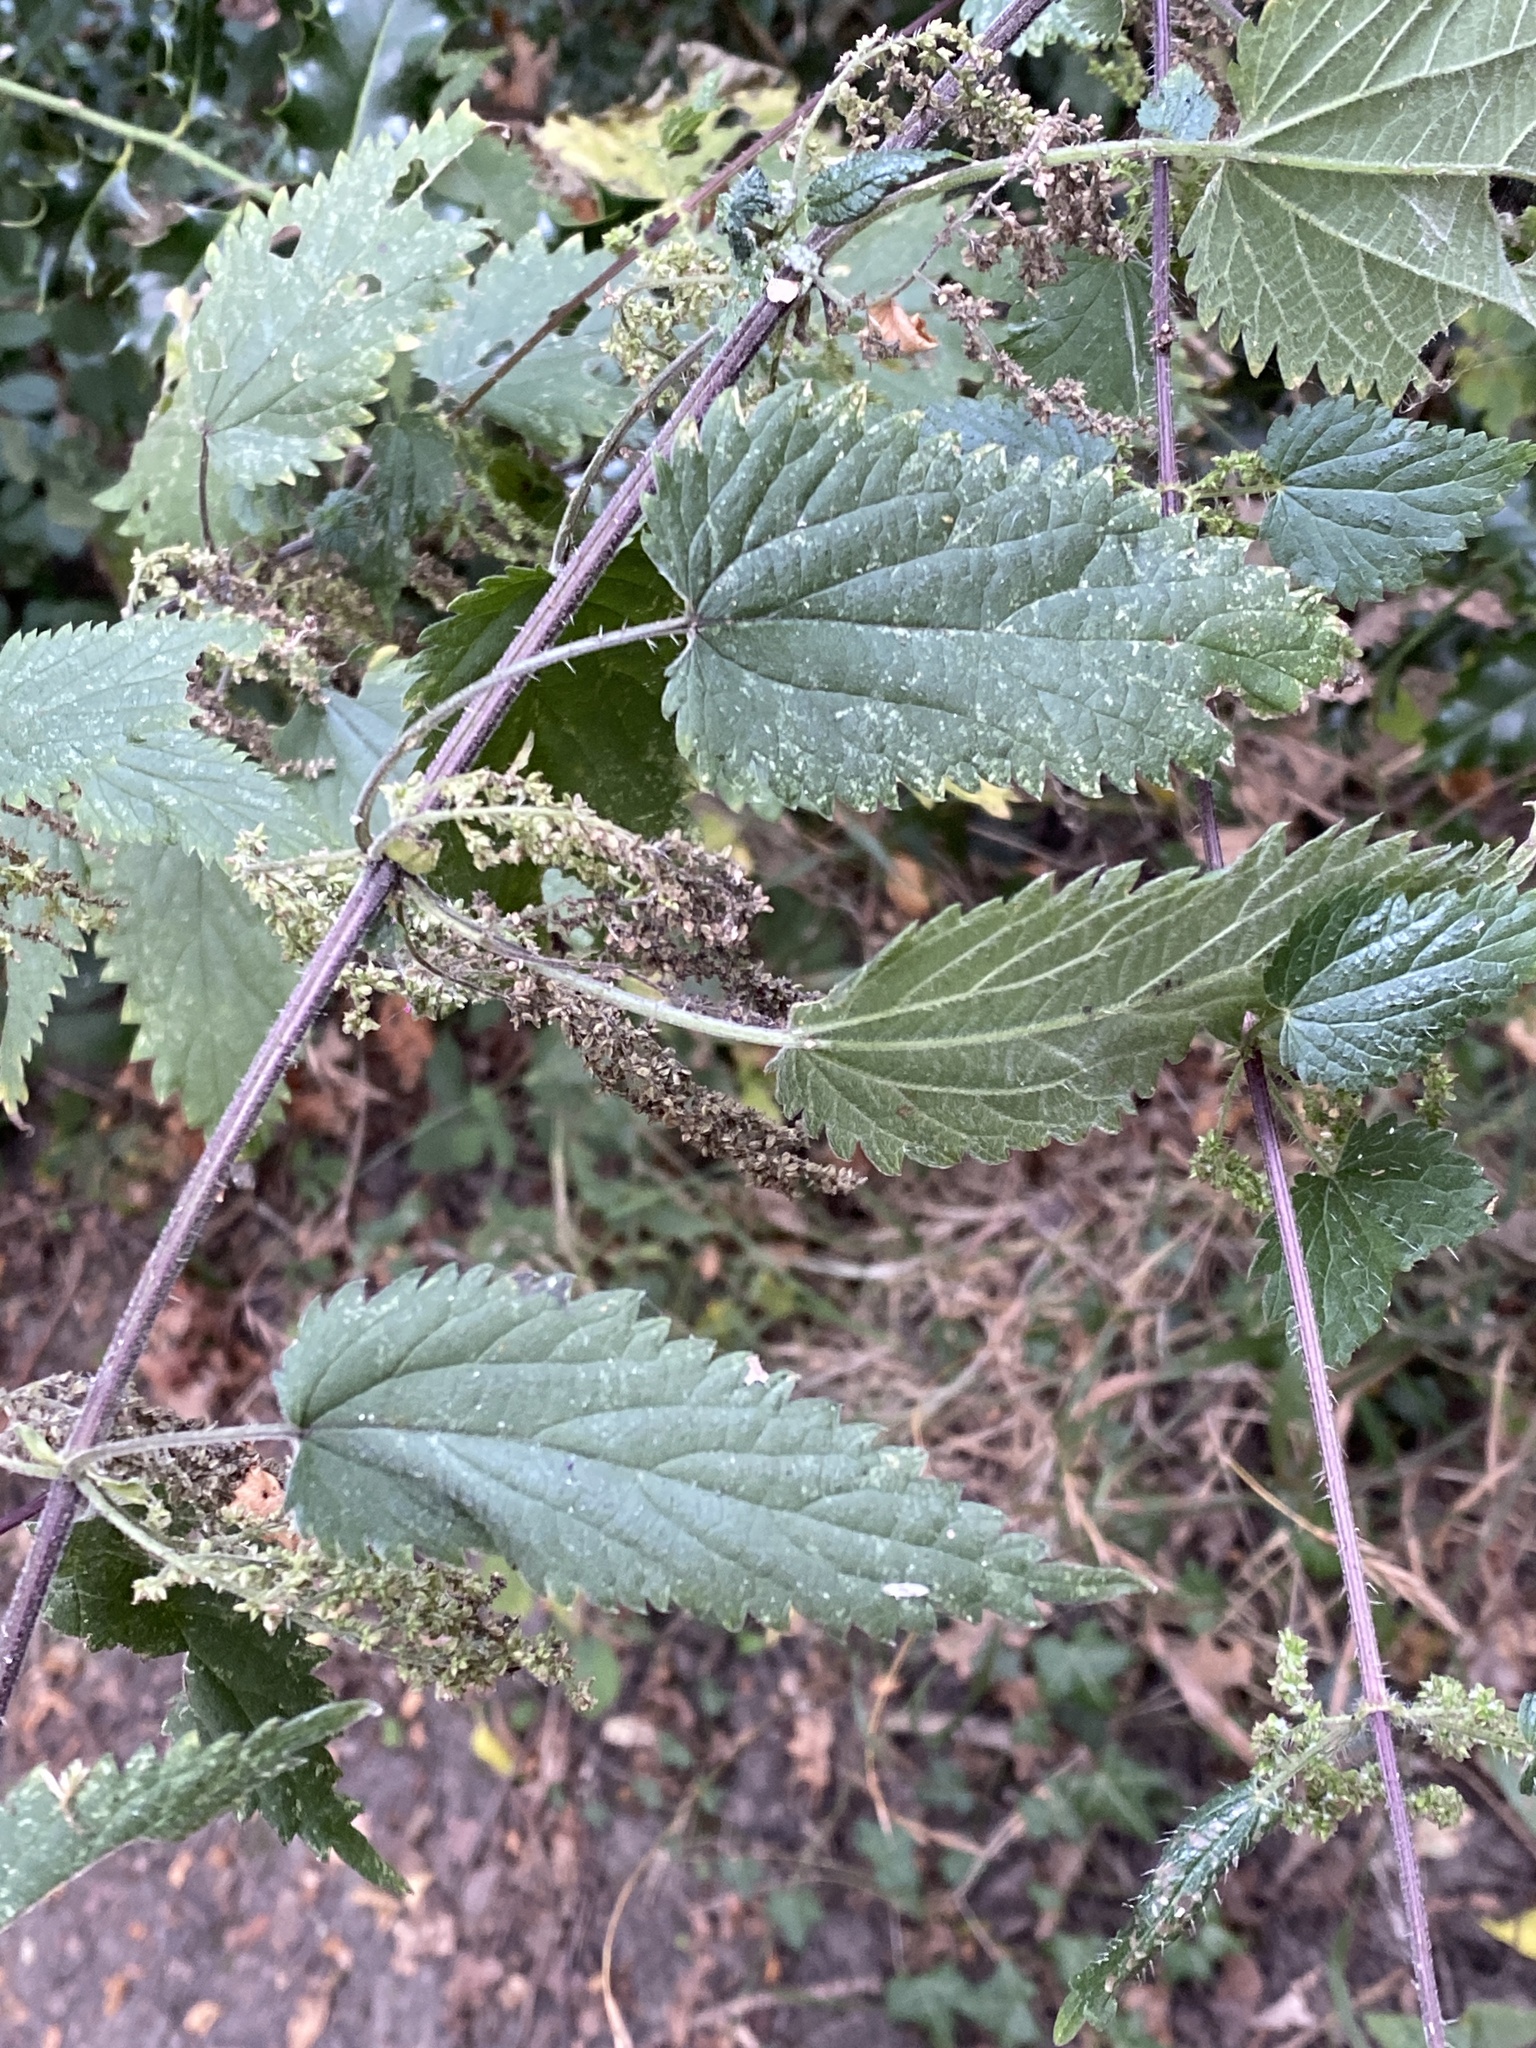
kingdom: Plantae
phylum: Tracheophyta
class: Magnoliopsida
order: Rosales
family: Urticaceae
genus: Urtica
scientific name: Urtica dioica
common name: Common nettle
